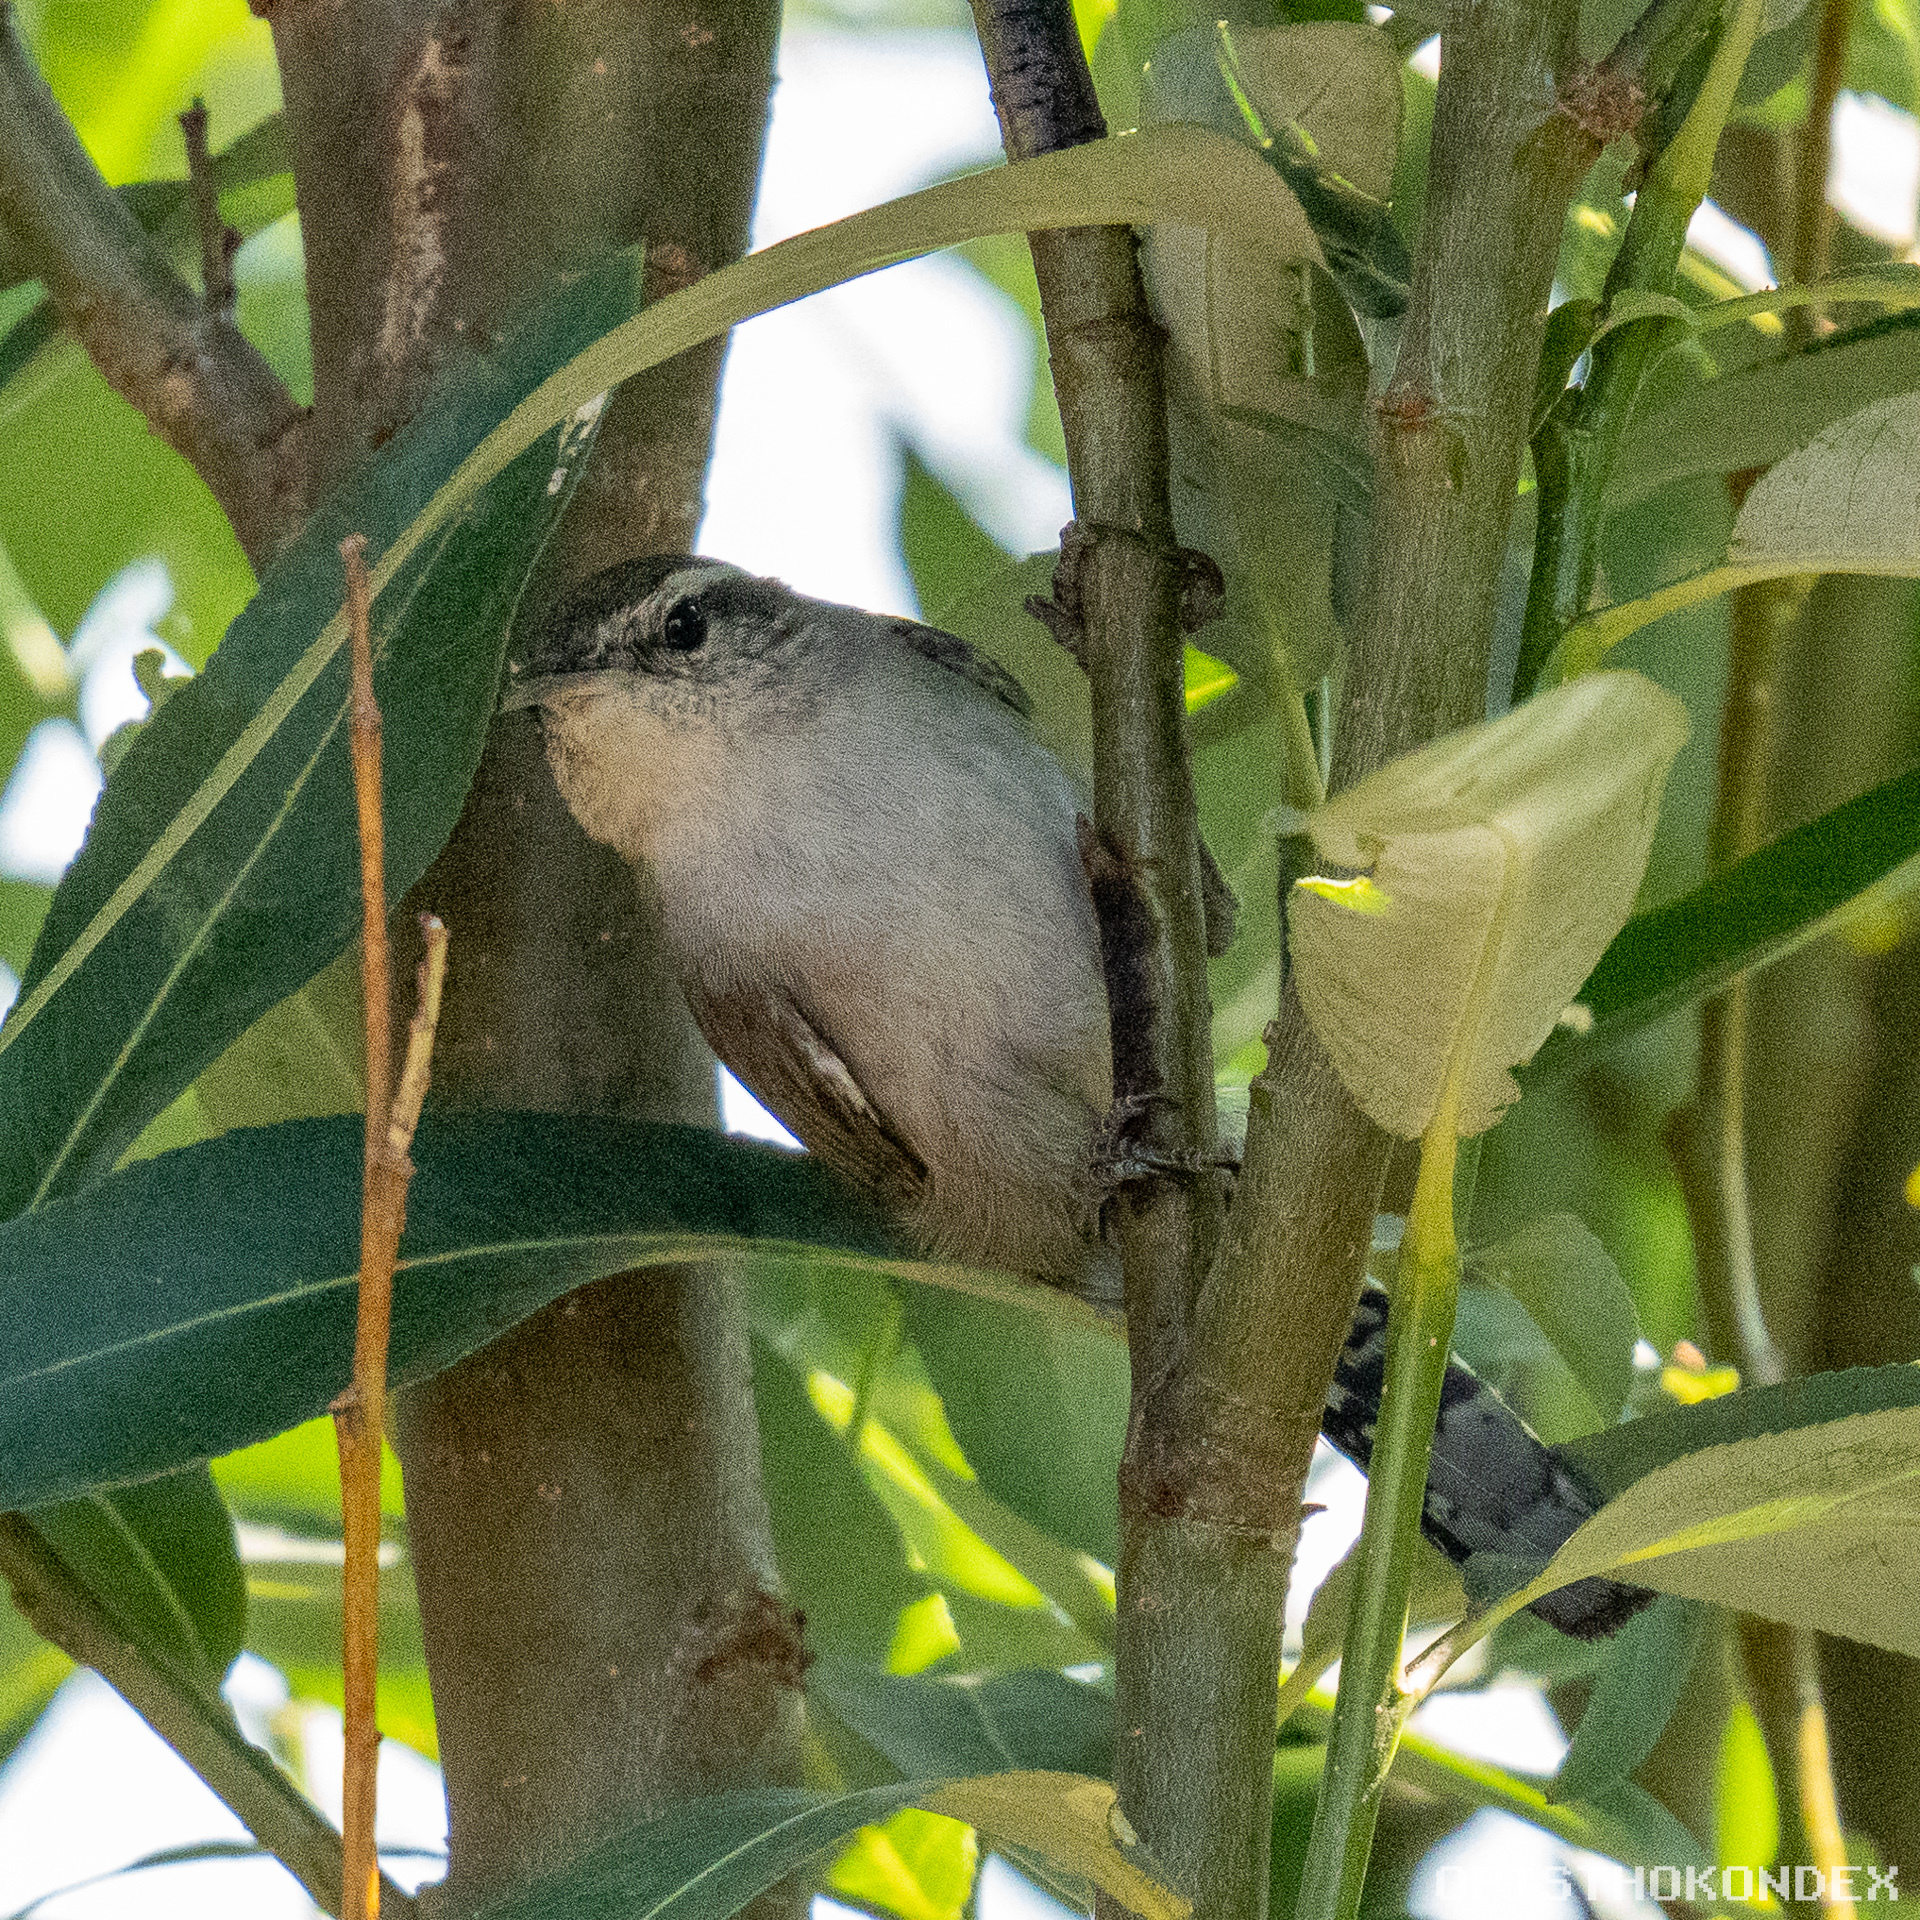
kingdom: Animalia
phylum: Chordata
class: Aves
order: Passeriformes
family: Troglodytidae
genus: Thryomanes
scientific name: Thryomanes bewickii
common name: Bewick's wren
